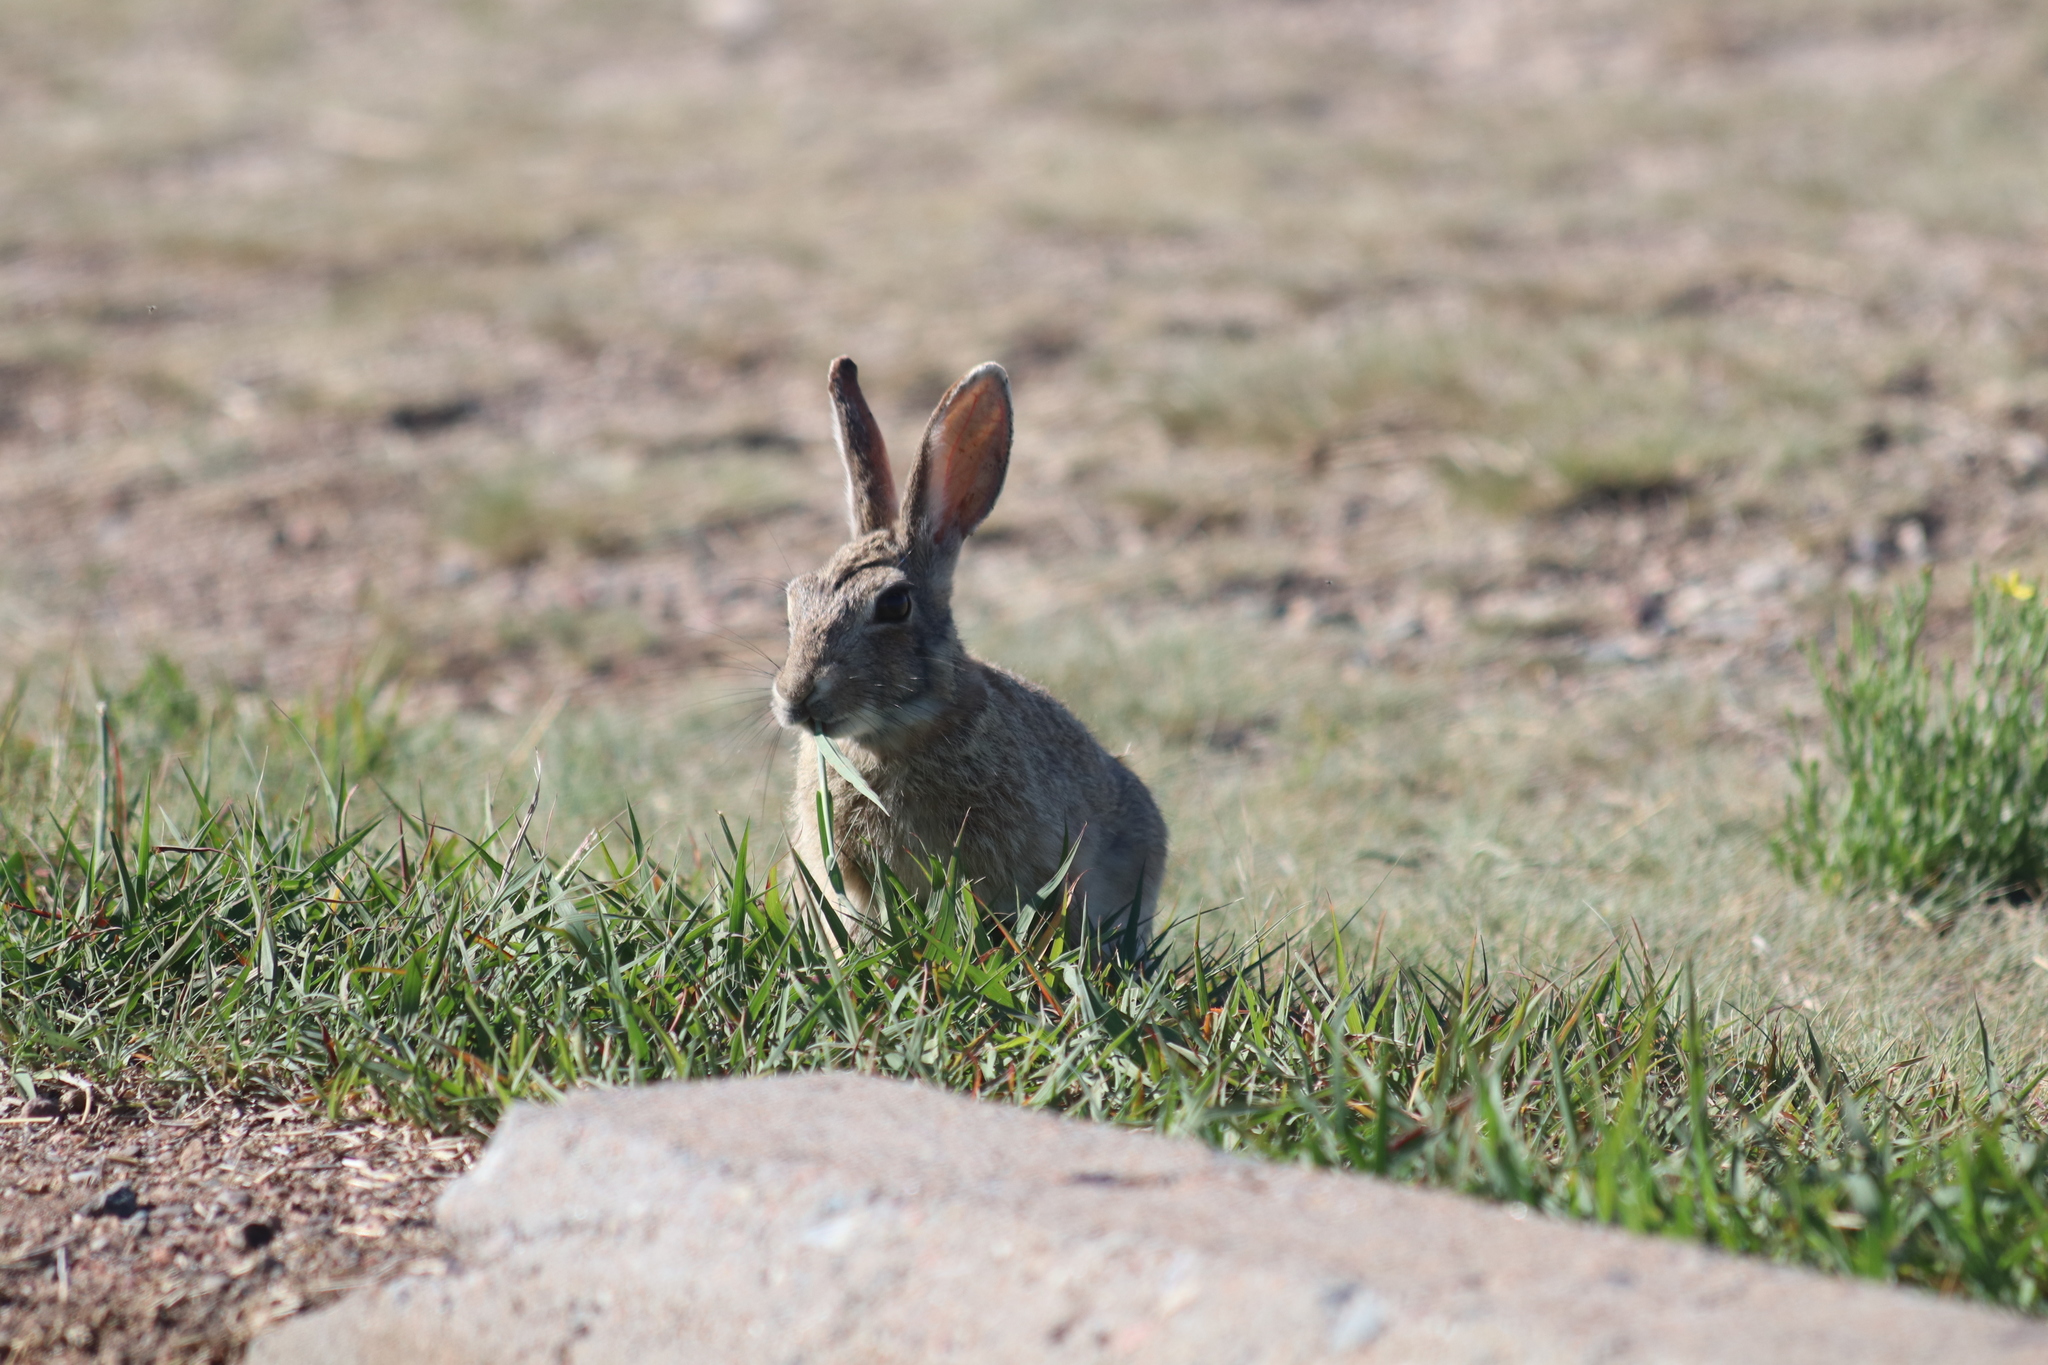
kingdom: Animalia
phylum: Chordata
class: Mammalia
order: Lagomorpha
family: Leporidae
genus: Sylvilagus
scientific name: Sylvilagus audubonii
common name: Desert cottontail
